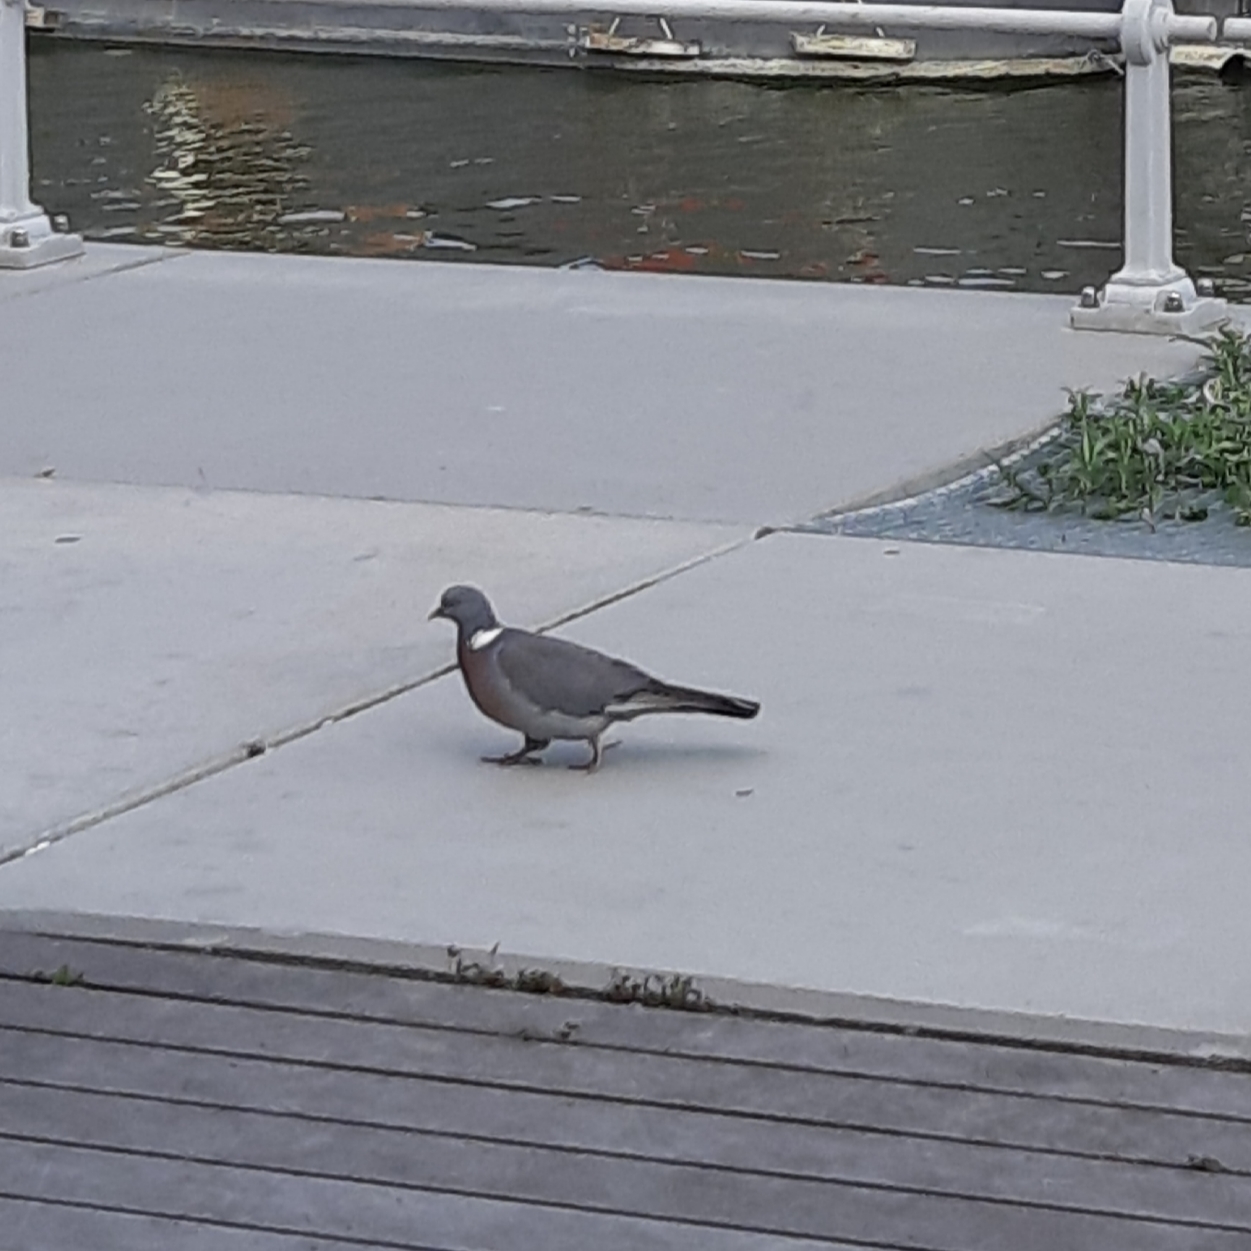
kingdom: Animalia
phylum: Chordata
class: Aves
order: Columbiformes
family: Columbidae
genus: Columba
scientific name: Columba palumbus
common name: Common wood pigeon
